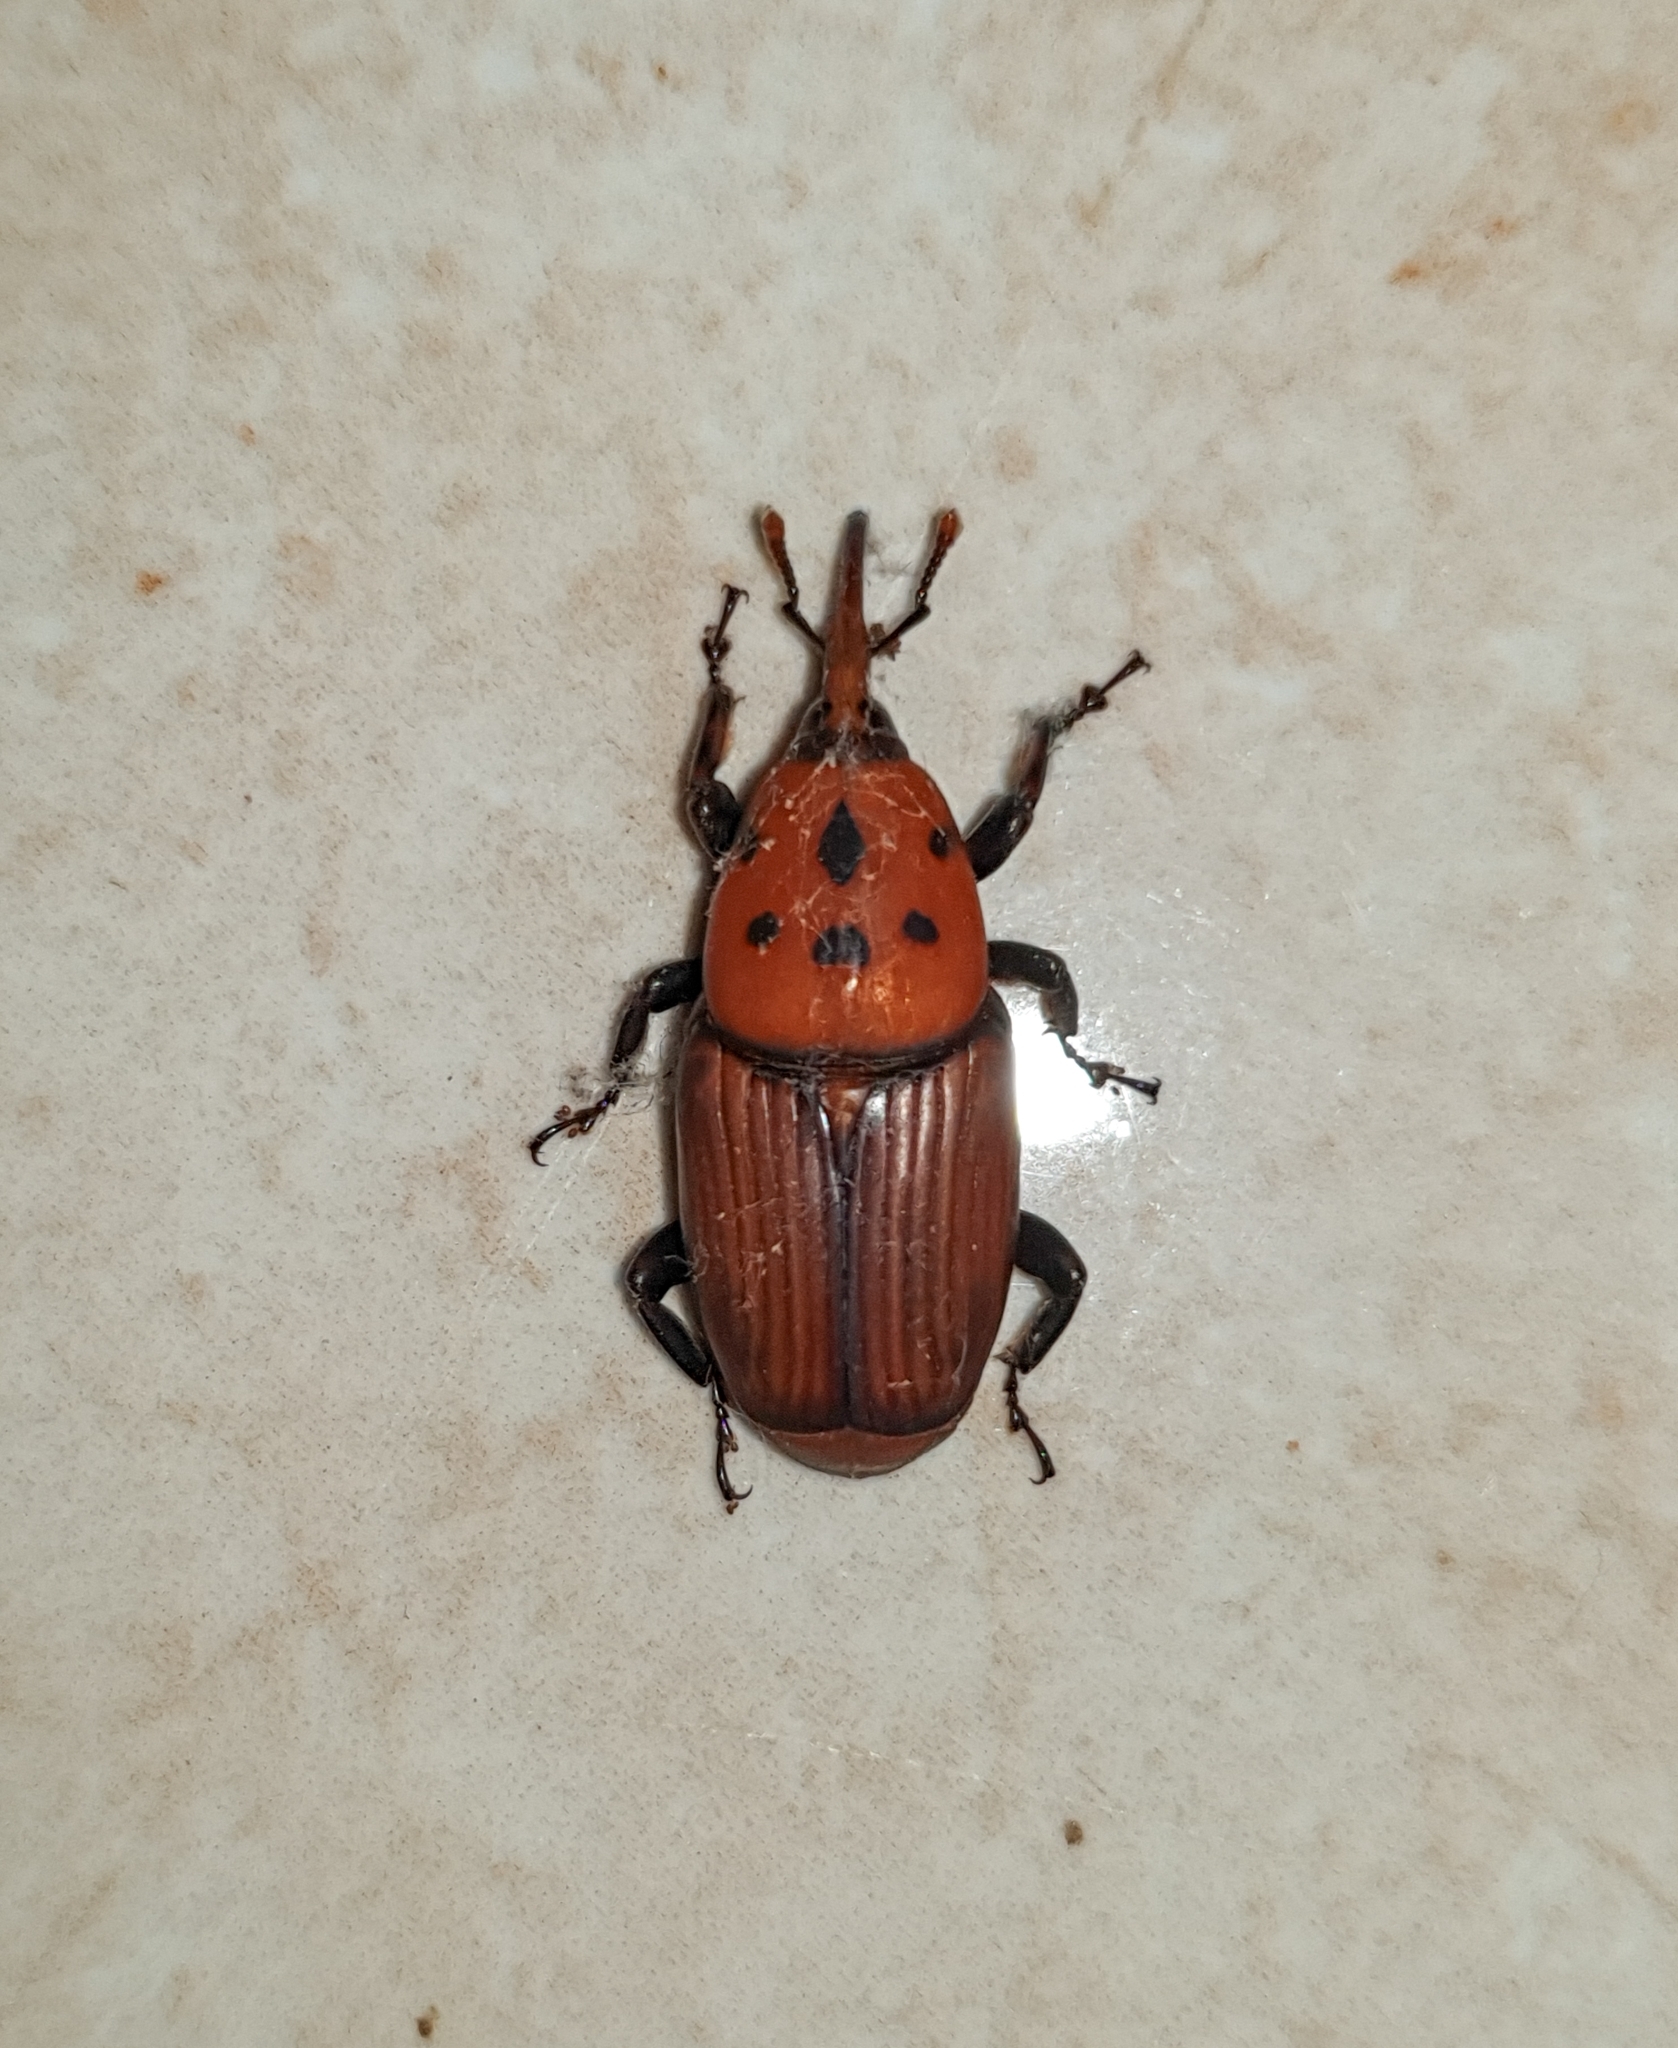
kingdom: Animalia
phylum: Arthropoda
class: Insecta
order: Coleoptera
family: Dryophthoridae
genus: Rhynchophorus
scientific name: Rhynchophorus ferrugineus
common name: Red palm weevil
